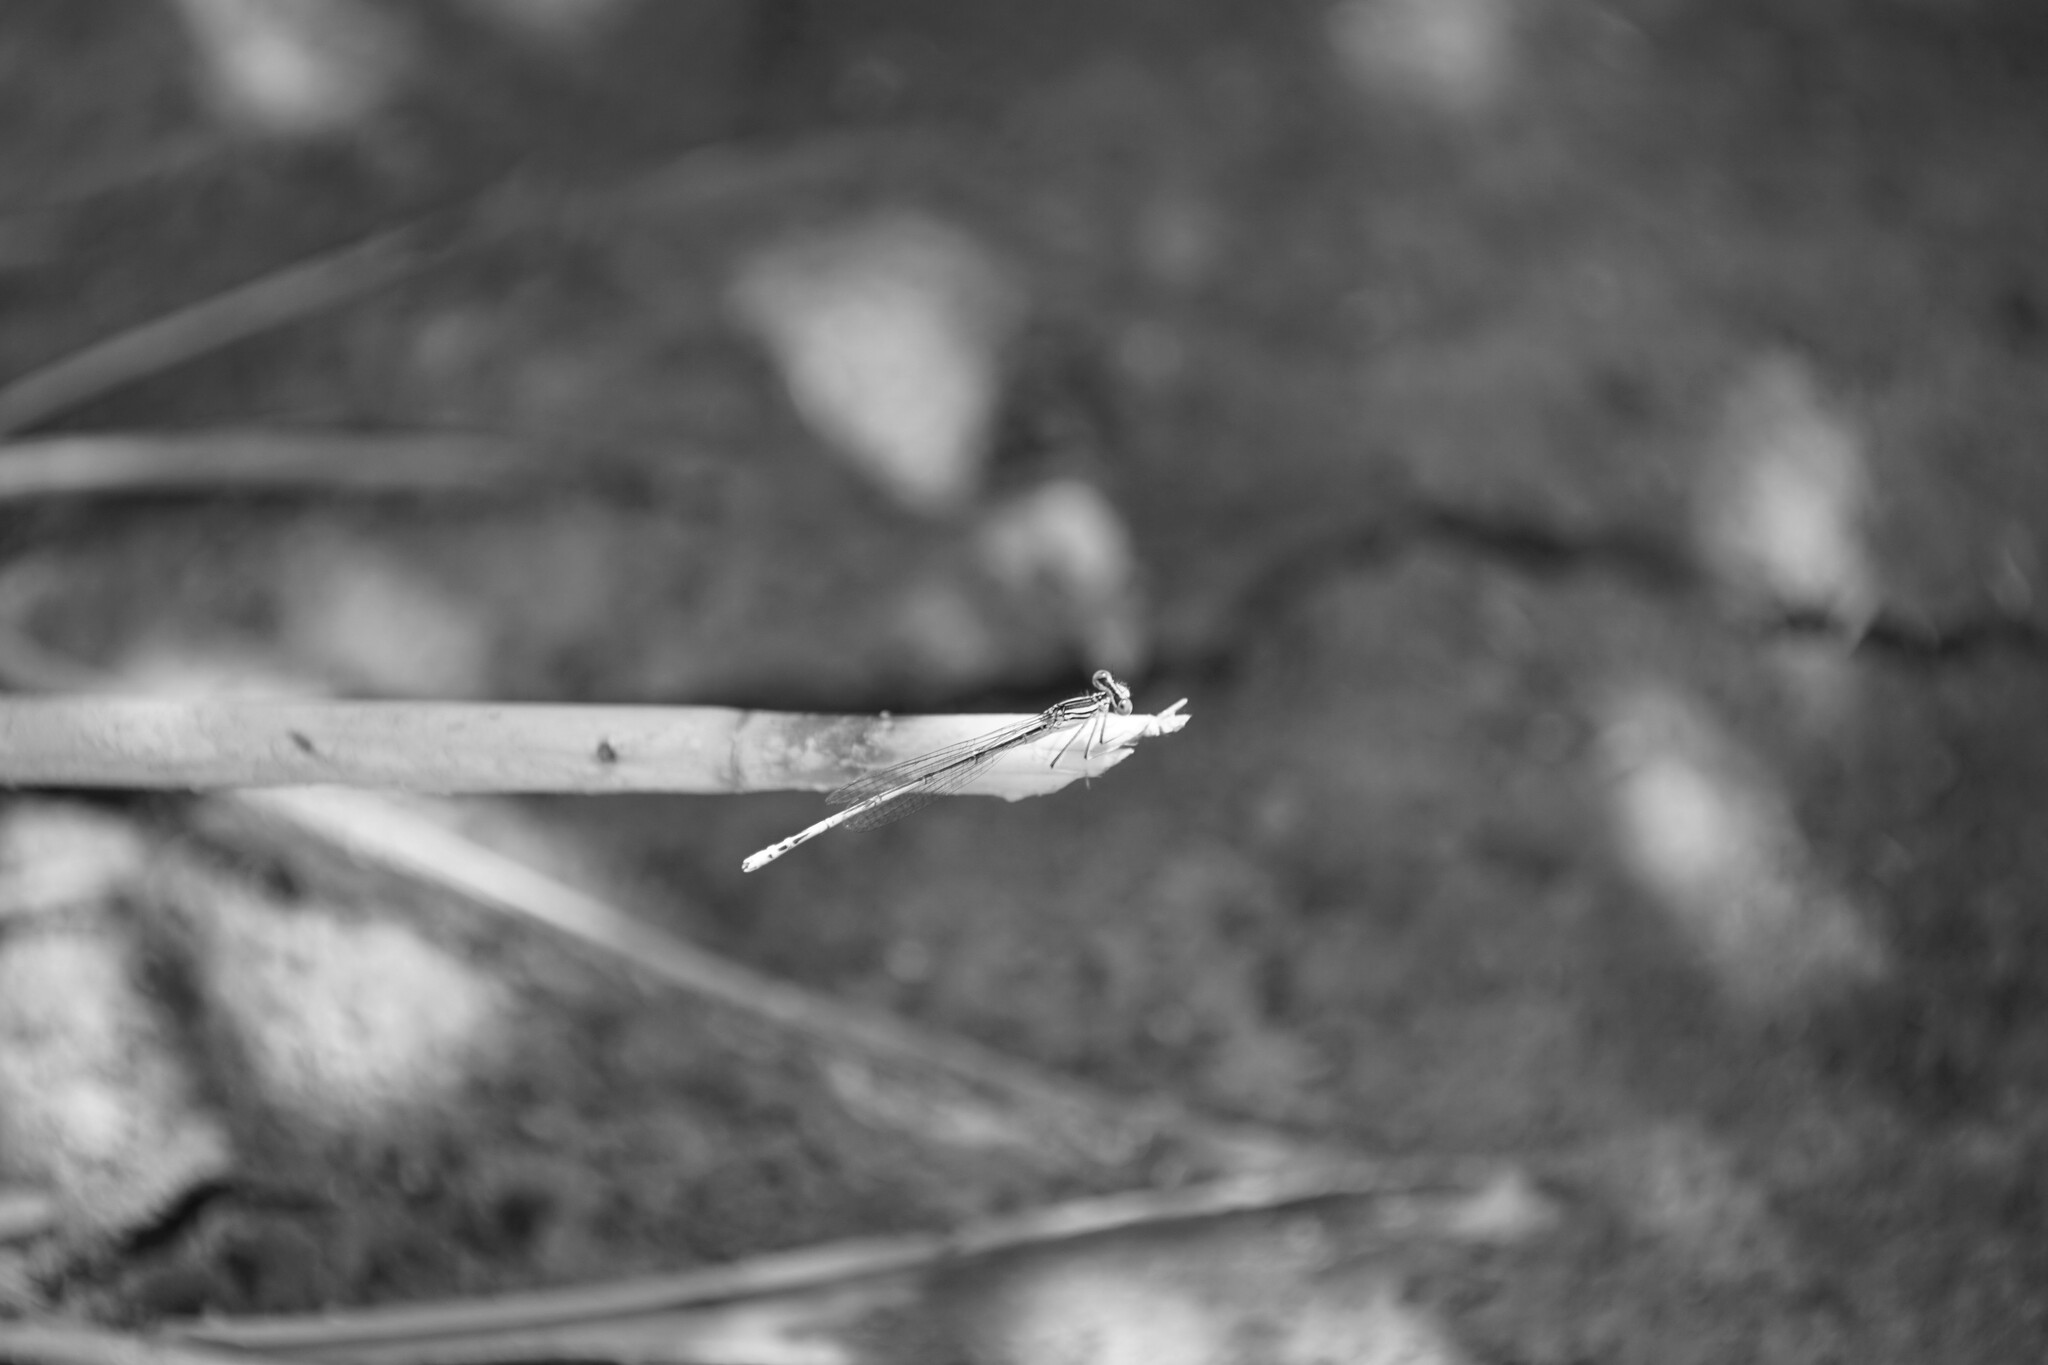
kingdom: Animalia
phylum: Arthropoda
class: Insecta
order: Odonata
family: Platycnemididae
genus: Platycnemis
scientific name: Platycnemis pennipes
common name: White-legged damselfly
